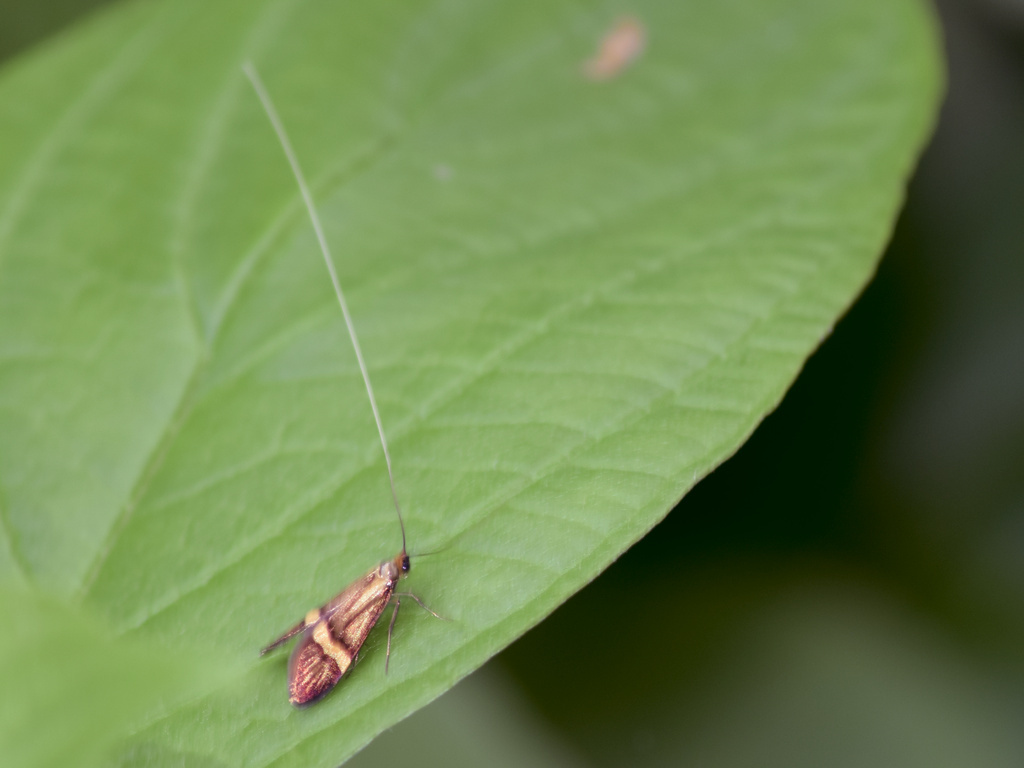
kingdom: Animalia
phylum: Arthropoda
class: Insecta
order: Lepidoptera
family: Adelidae
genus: Nemophora
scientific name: Nemophora degeerella
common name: Yellow-barred long-horn
